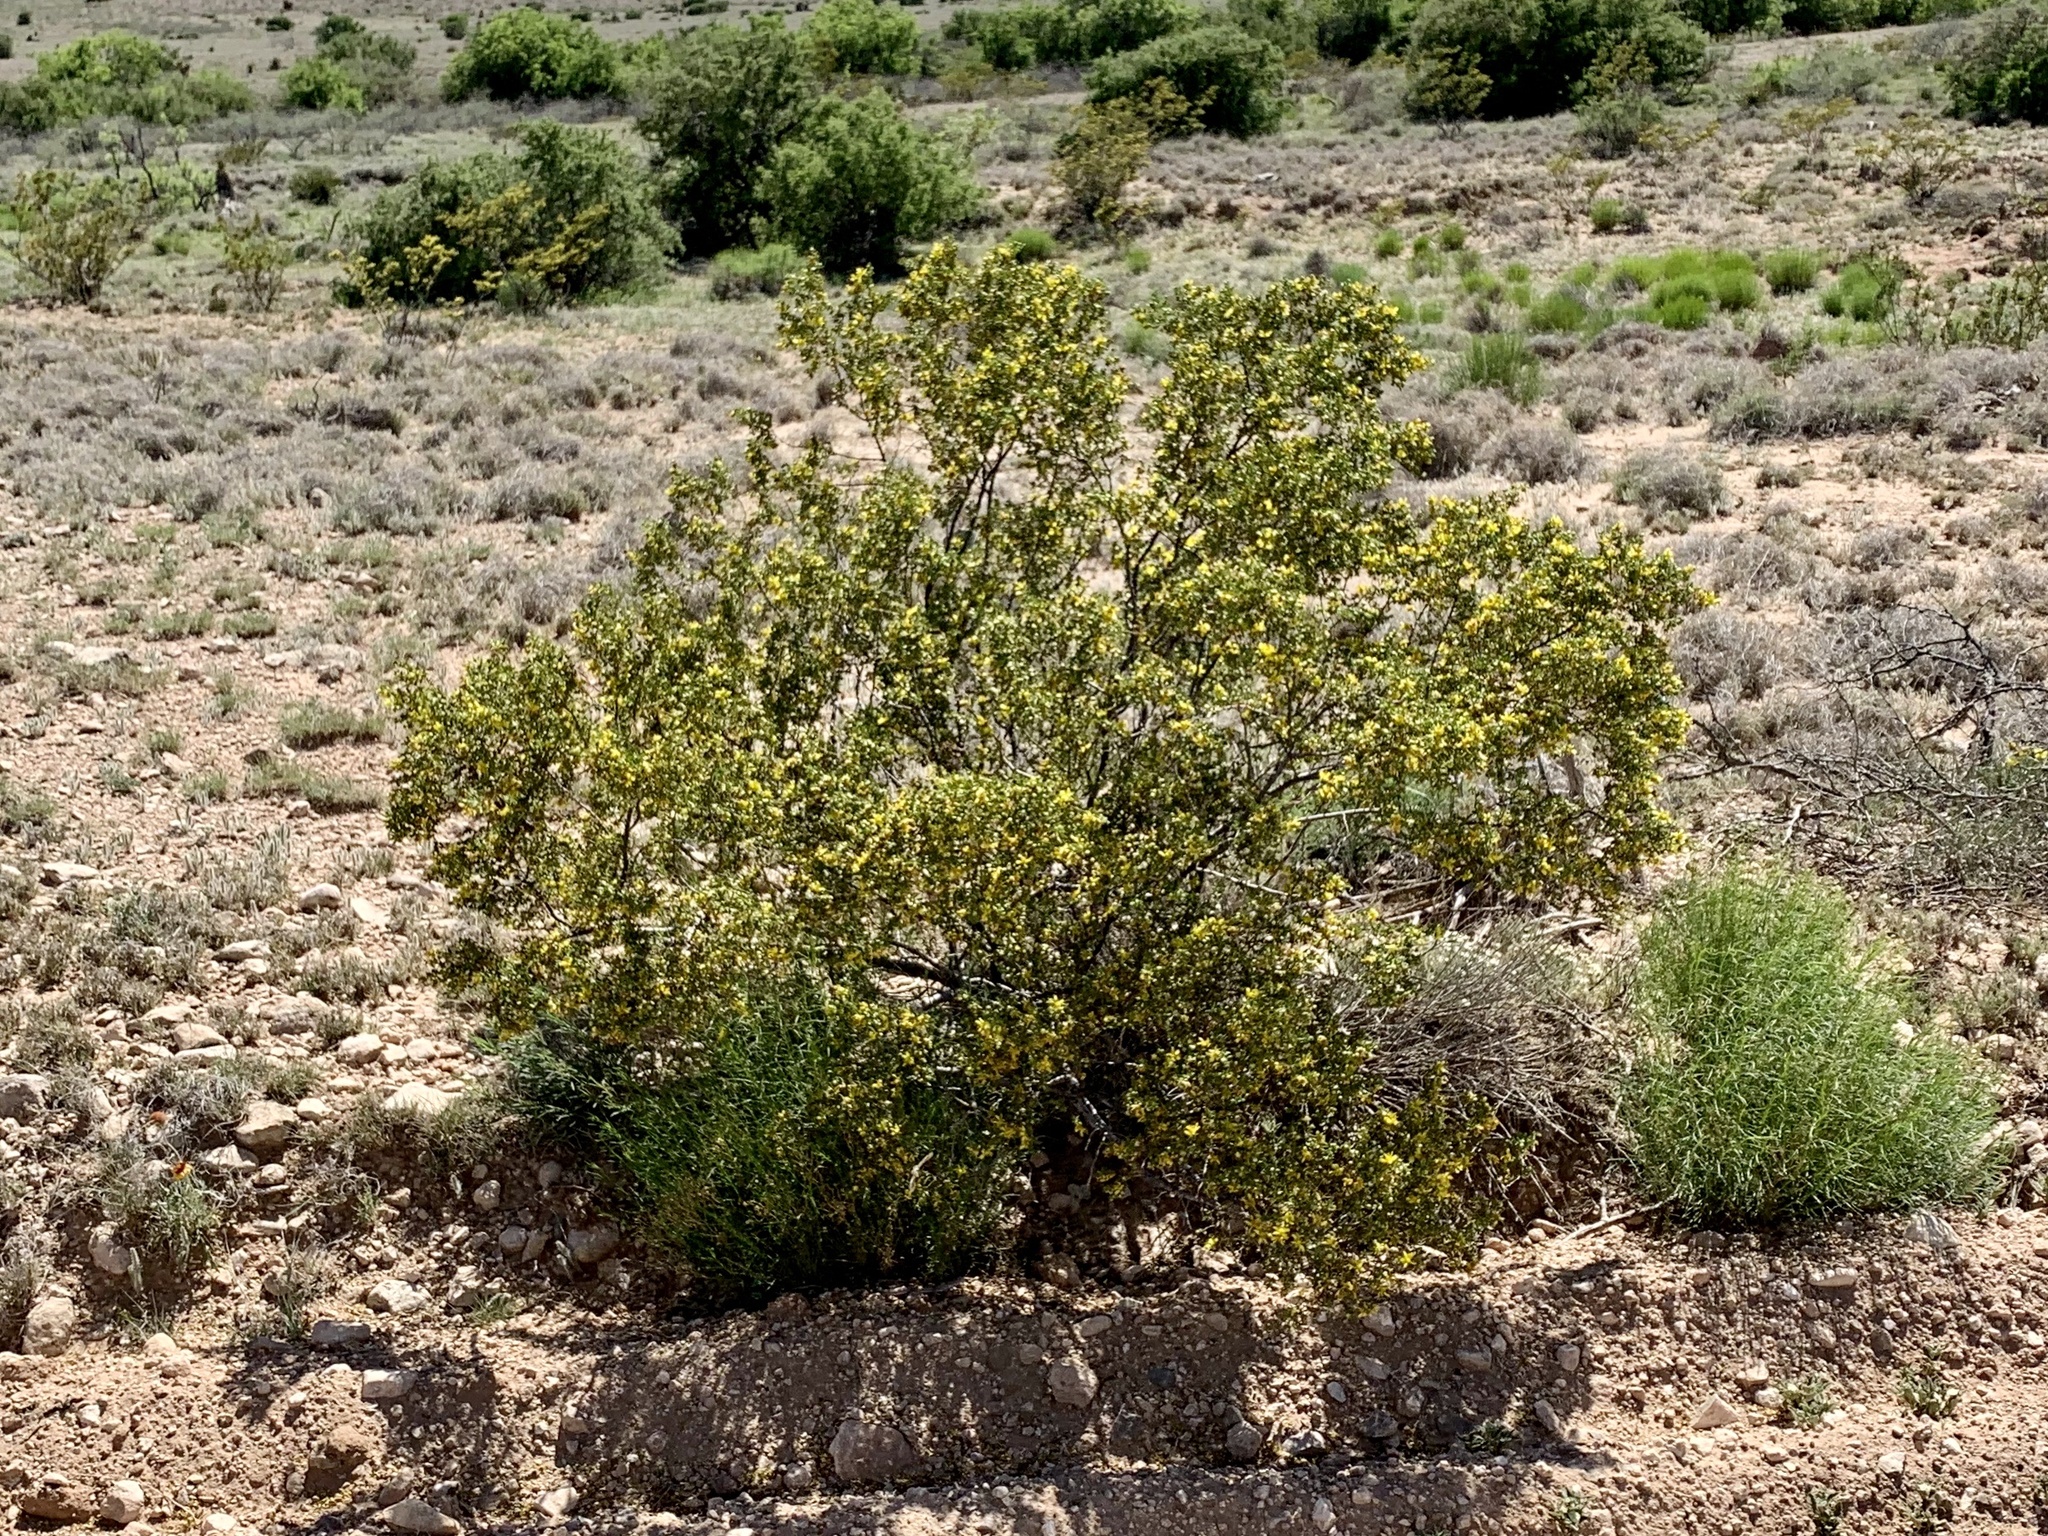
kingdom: Plantae
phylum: Tracheophyta
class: Magnoliopsida
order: Zygophyllales
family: Zygophyllaceae
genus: Larrea
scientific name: Larrea tridentata
